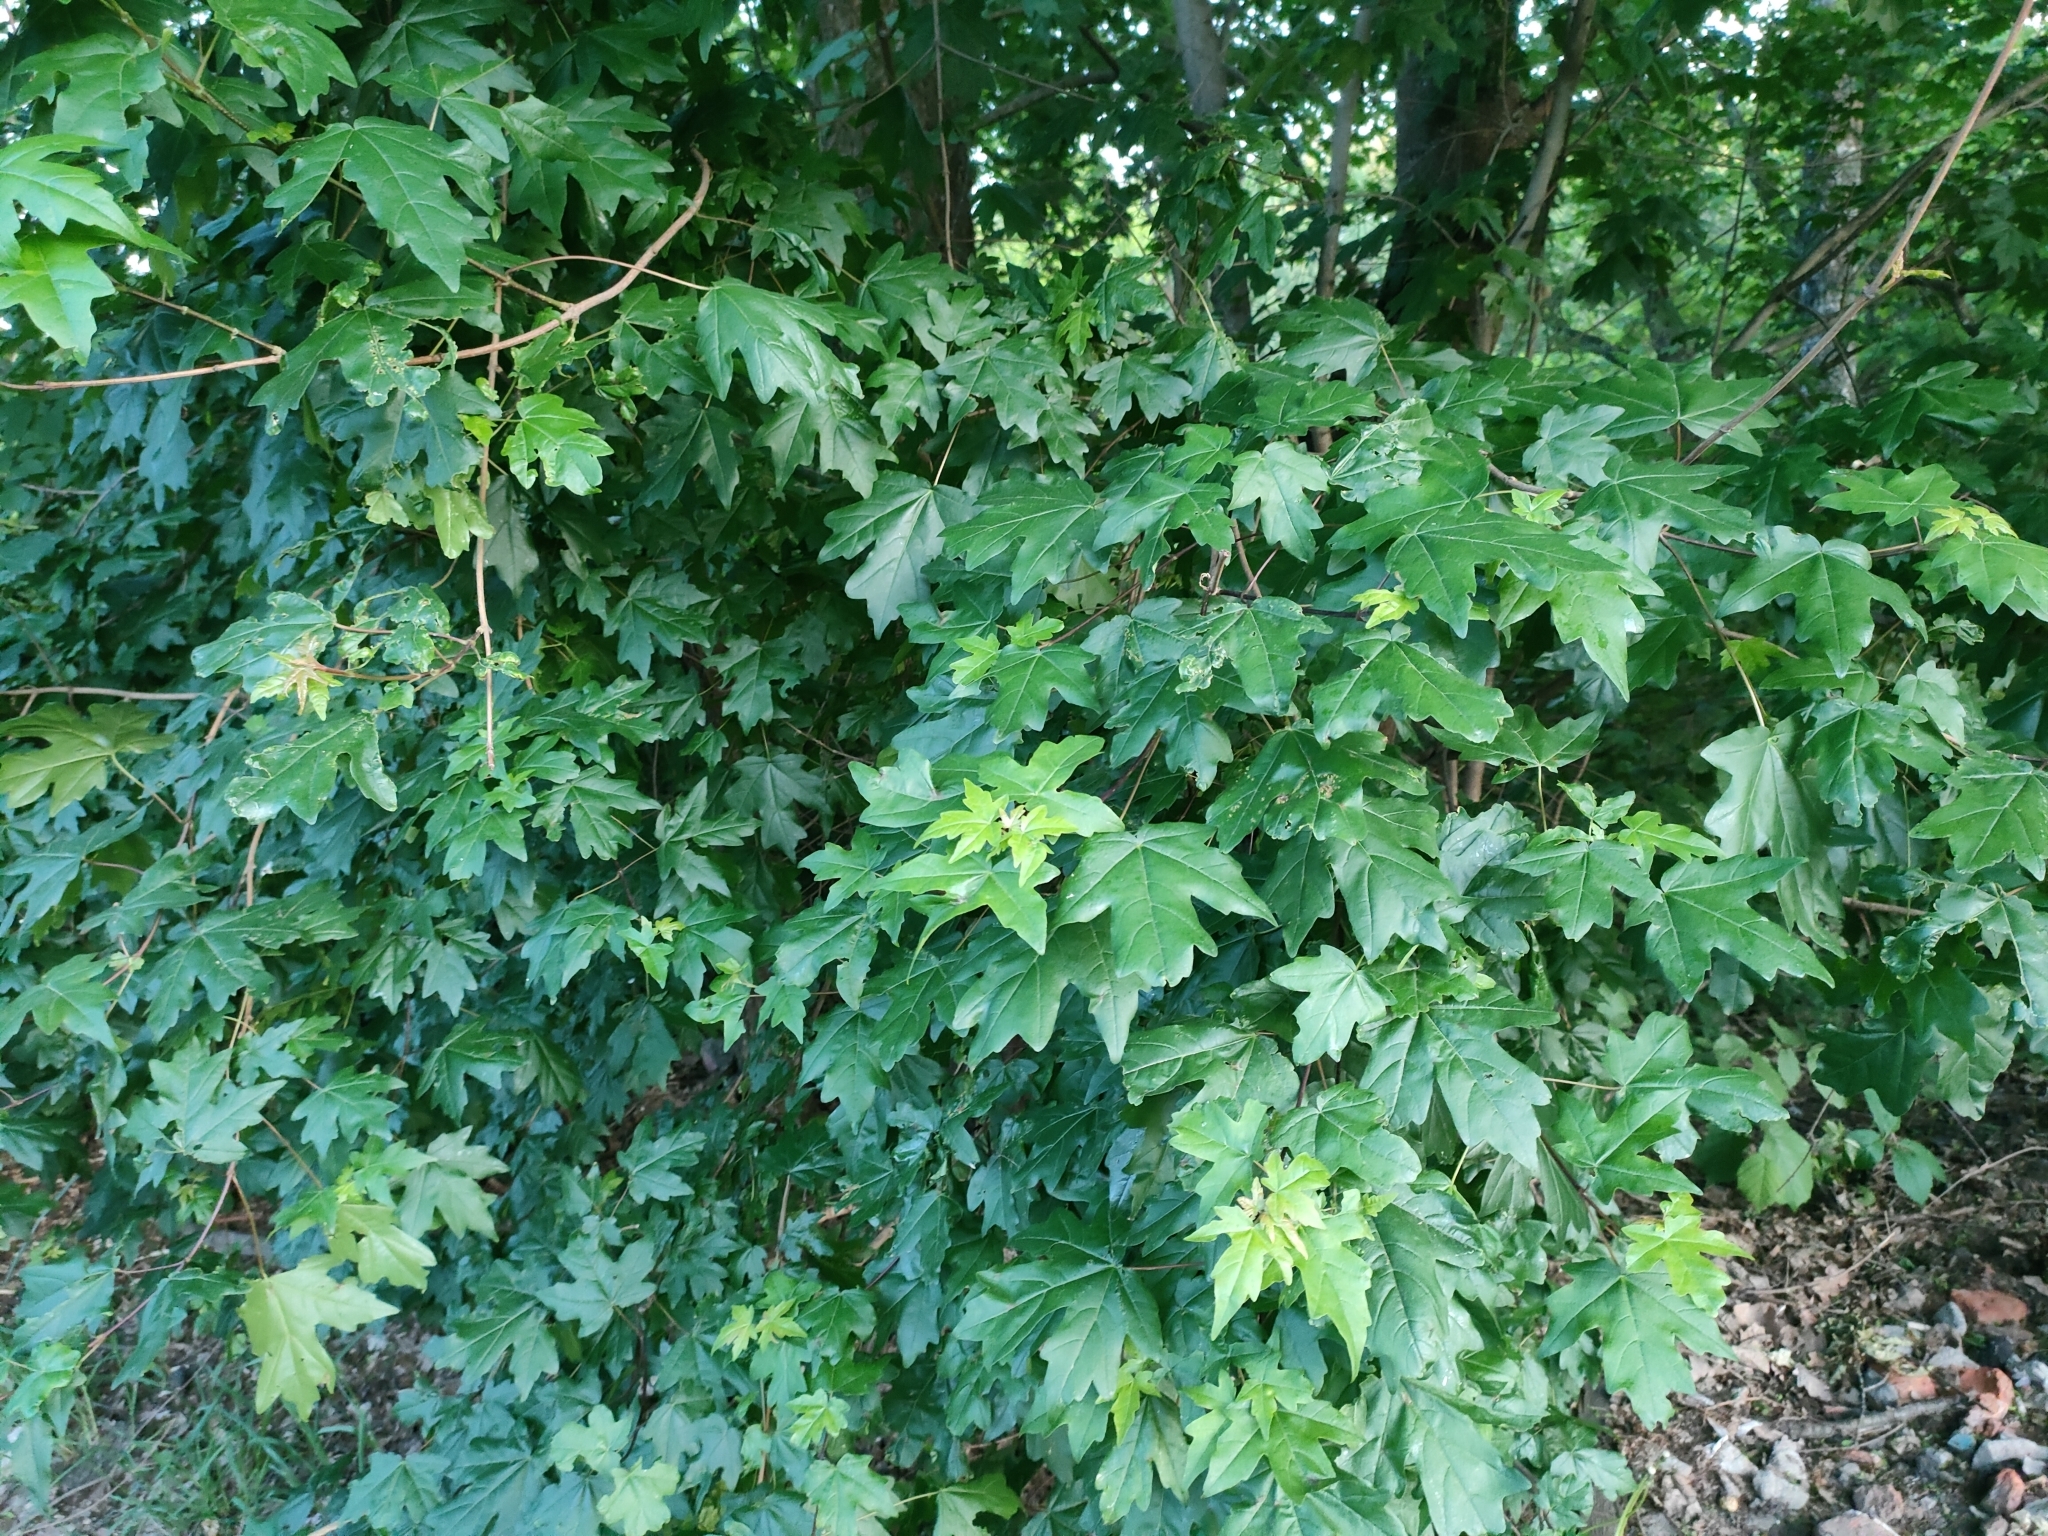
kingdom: Plantae
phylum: Tracheophyta
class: Magnoliopsida
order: Sapindales
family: Sapindaceae
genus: Acer
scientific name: Acer campestre
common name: Field maple
